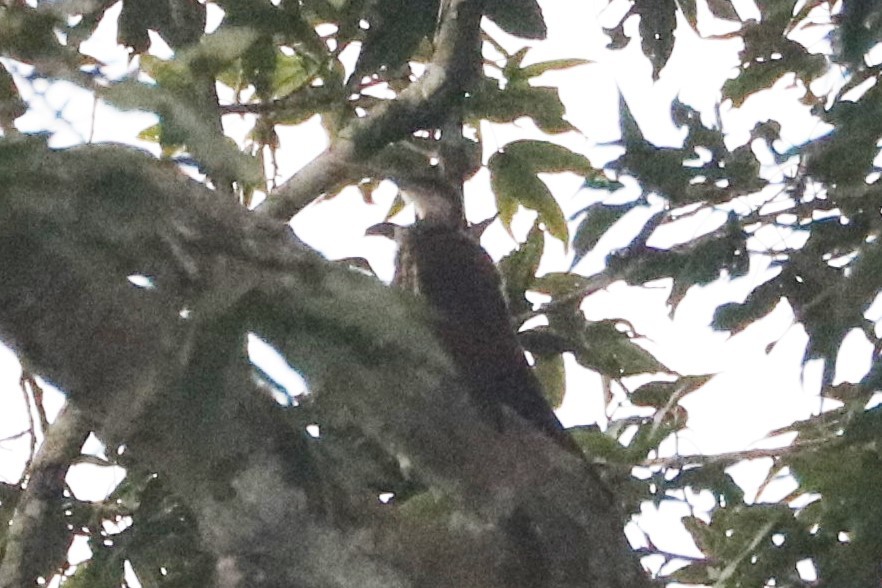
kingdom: Animalia
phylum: Chordata
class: Aves
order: Passeriformes
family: Furnariidae
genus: Nasica
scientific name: Nasica longirostris
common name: Long-billed woodcreeper
